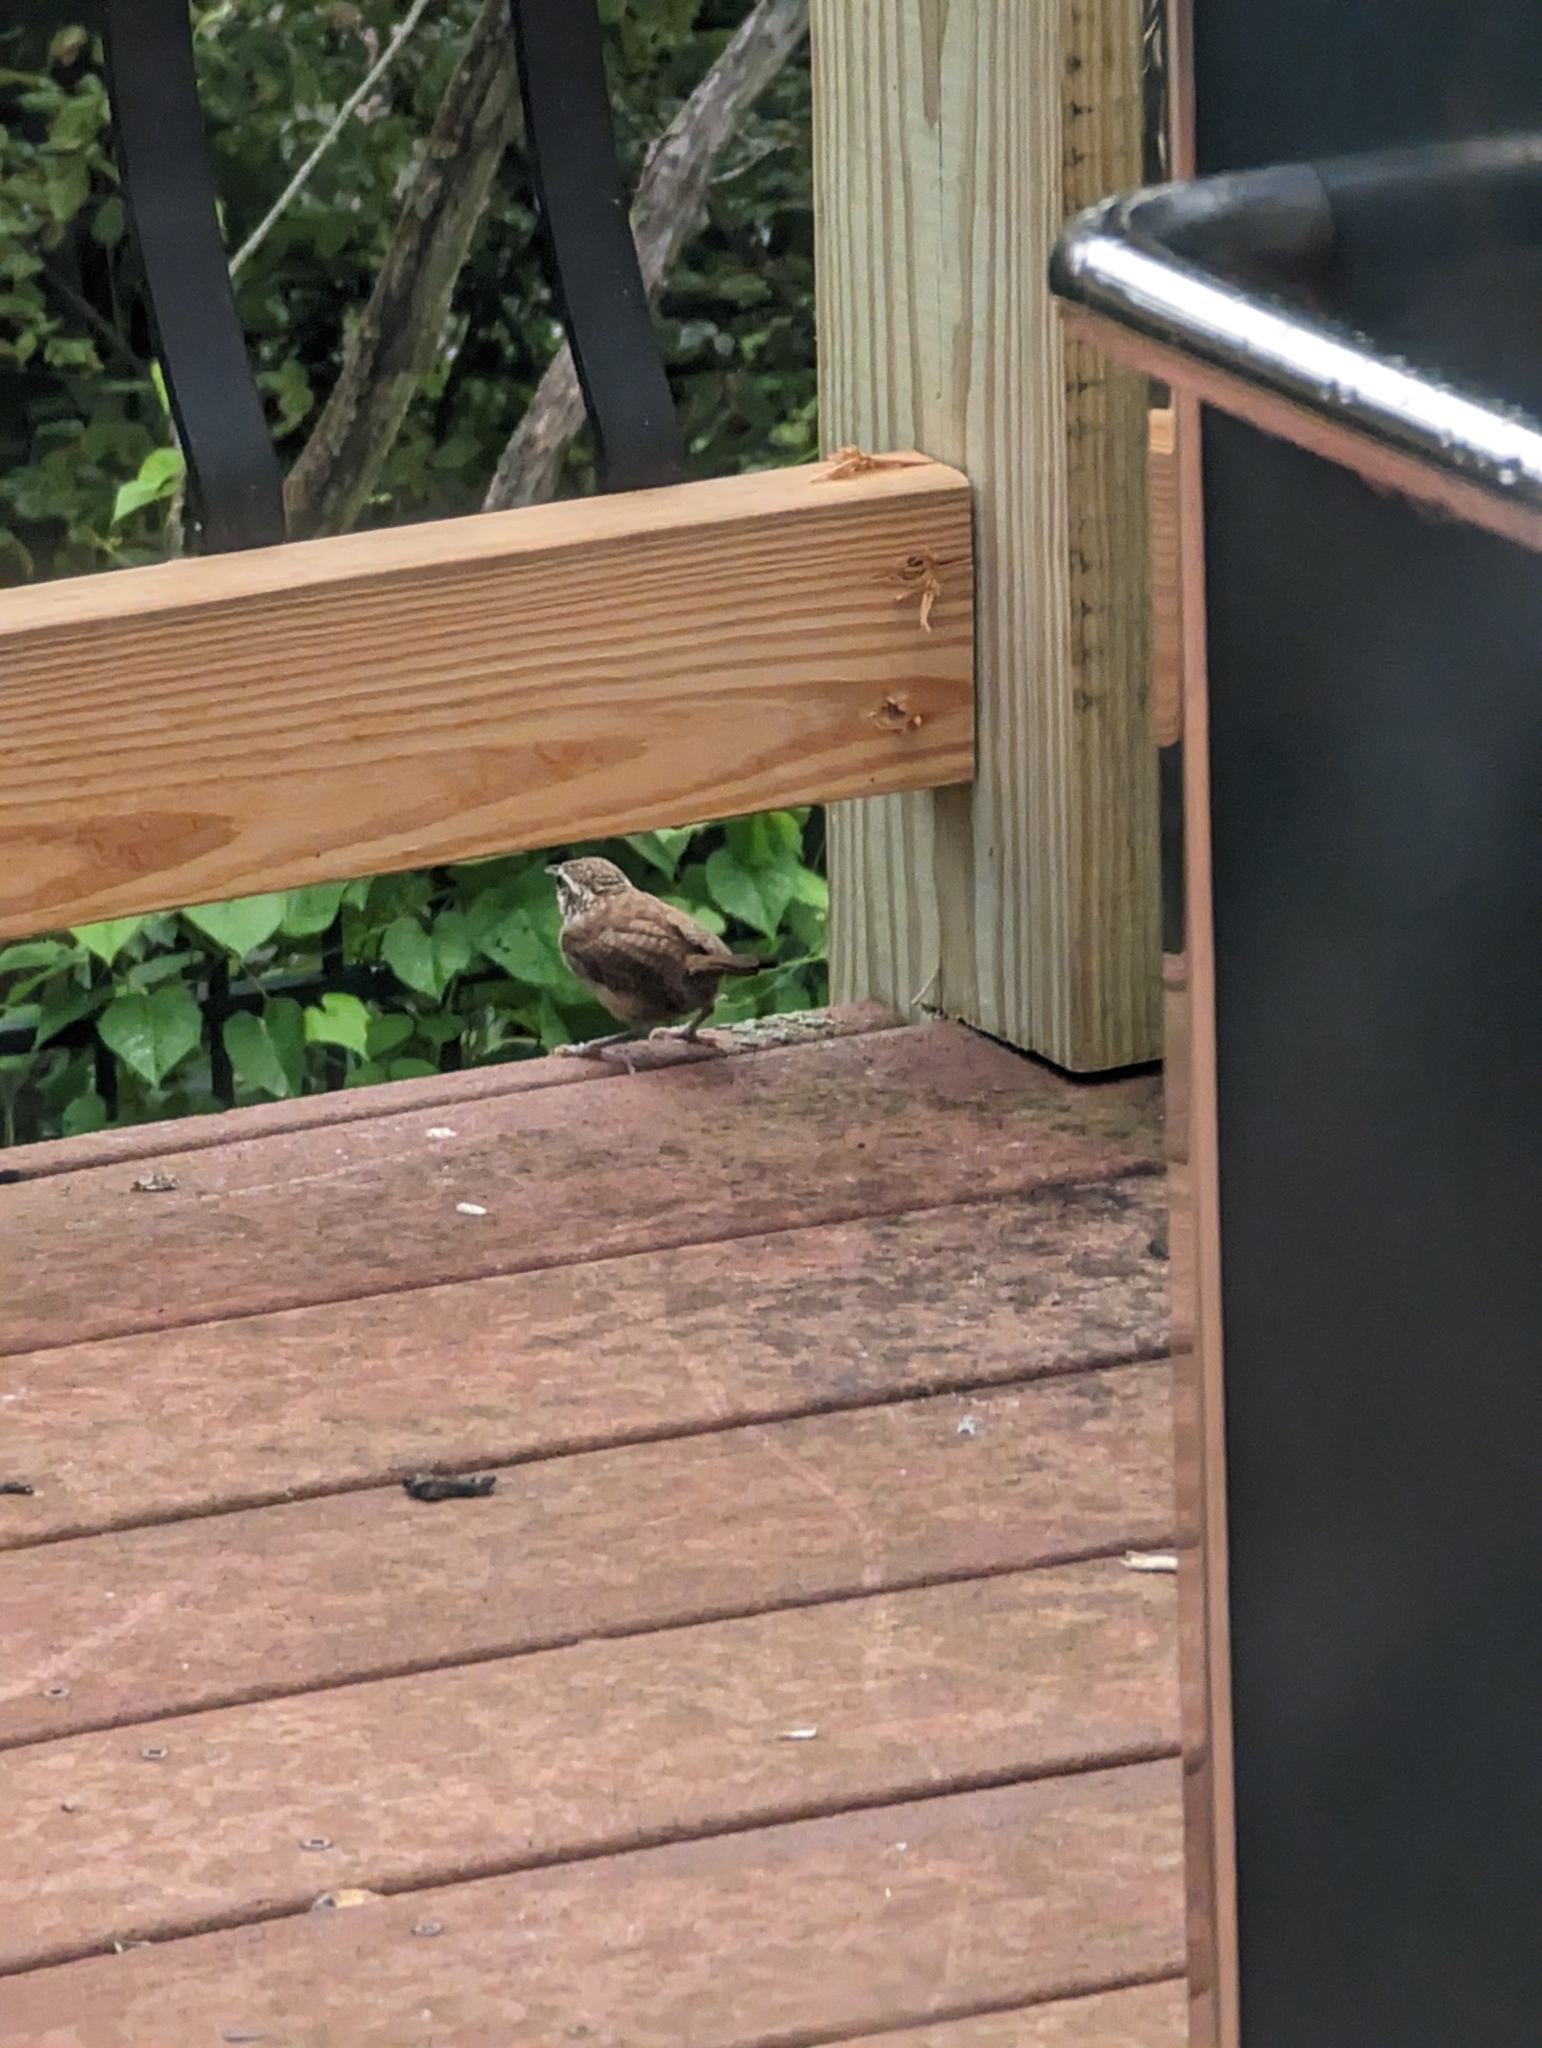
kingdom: Animalia
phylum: Chordata
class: Aves
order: Passeriformes
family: Troglodytidae
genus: Thryothorus
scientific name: Thryothorus ludovicianus
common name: Carolina wren
